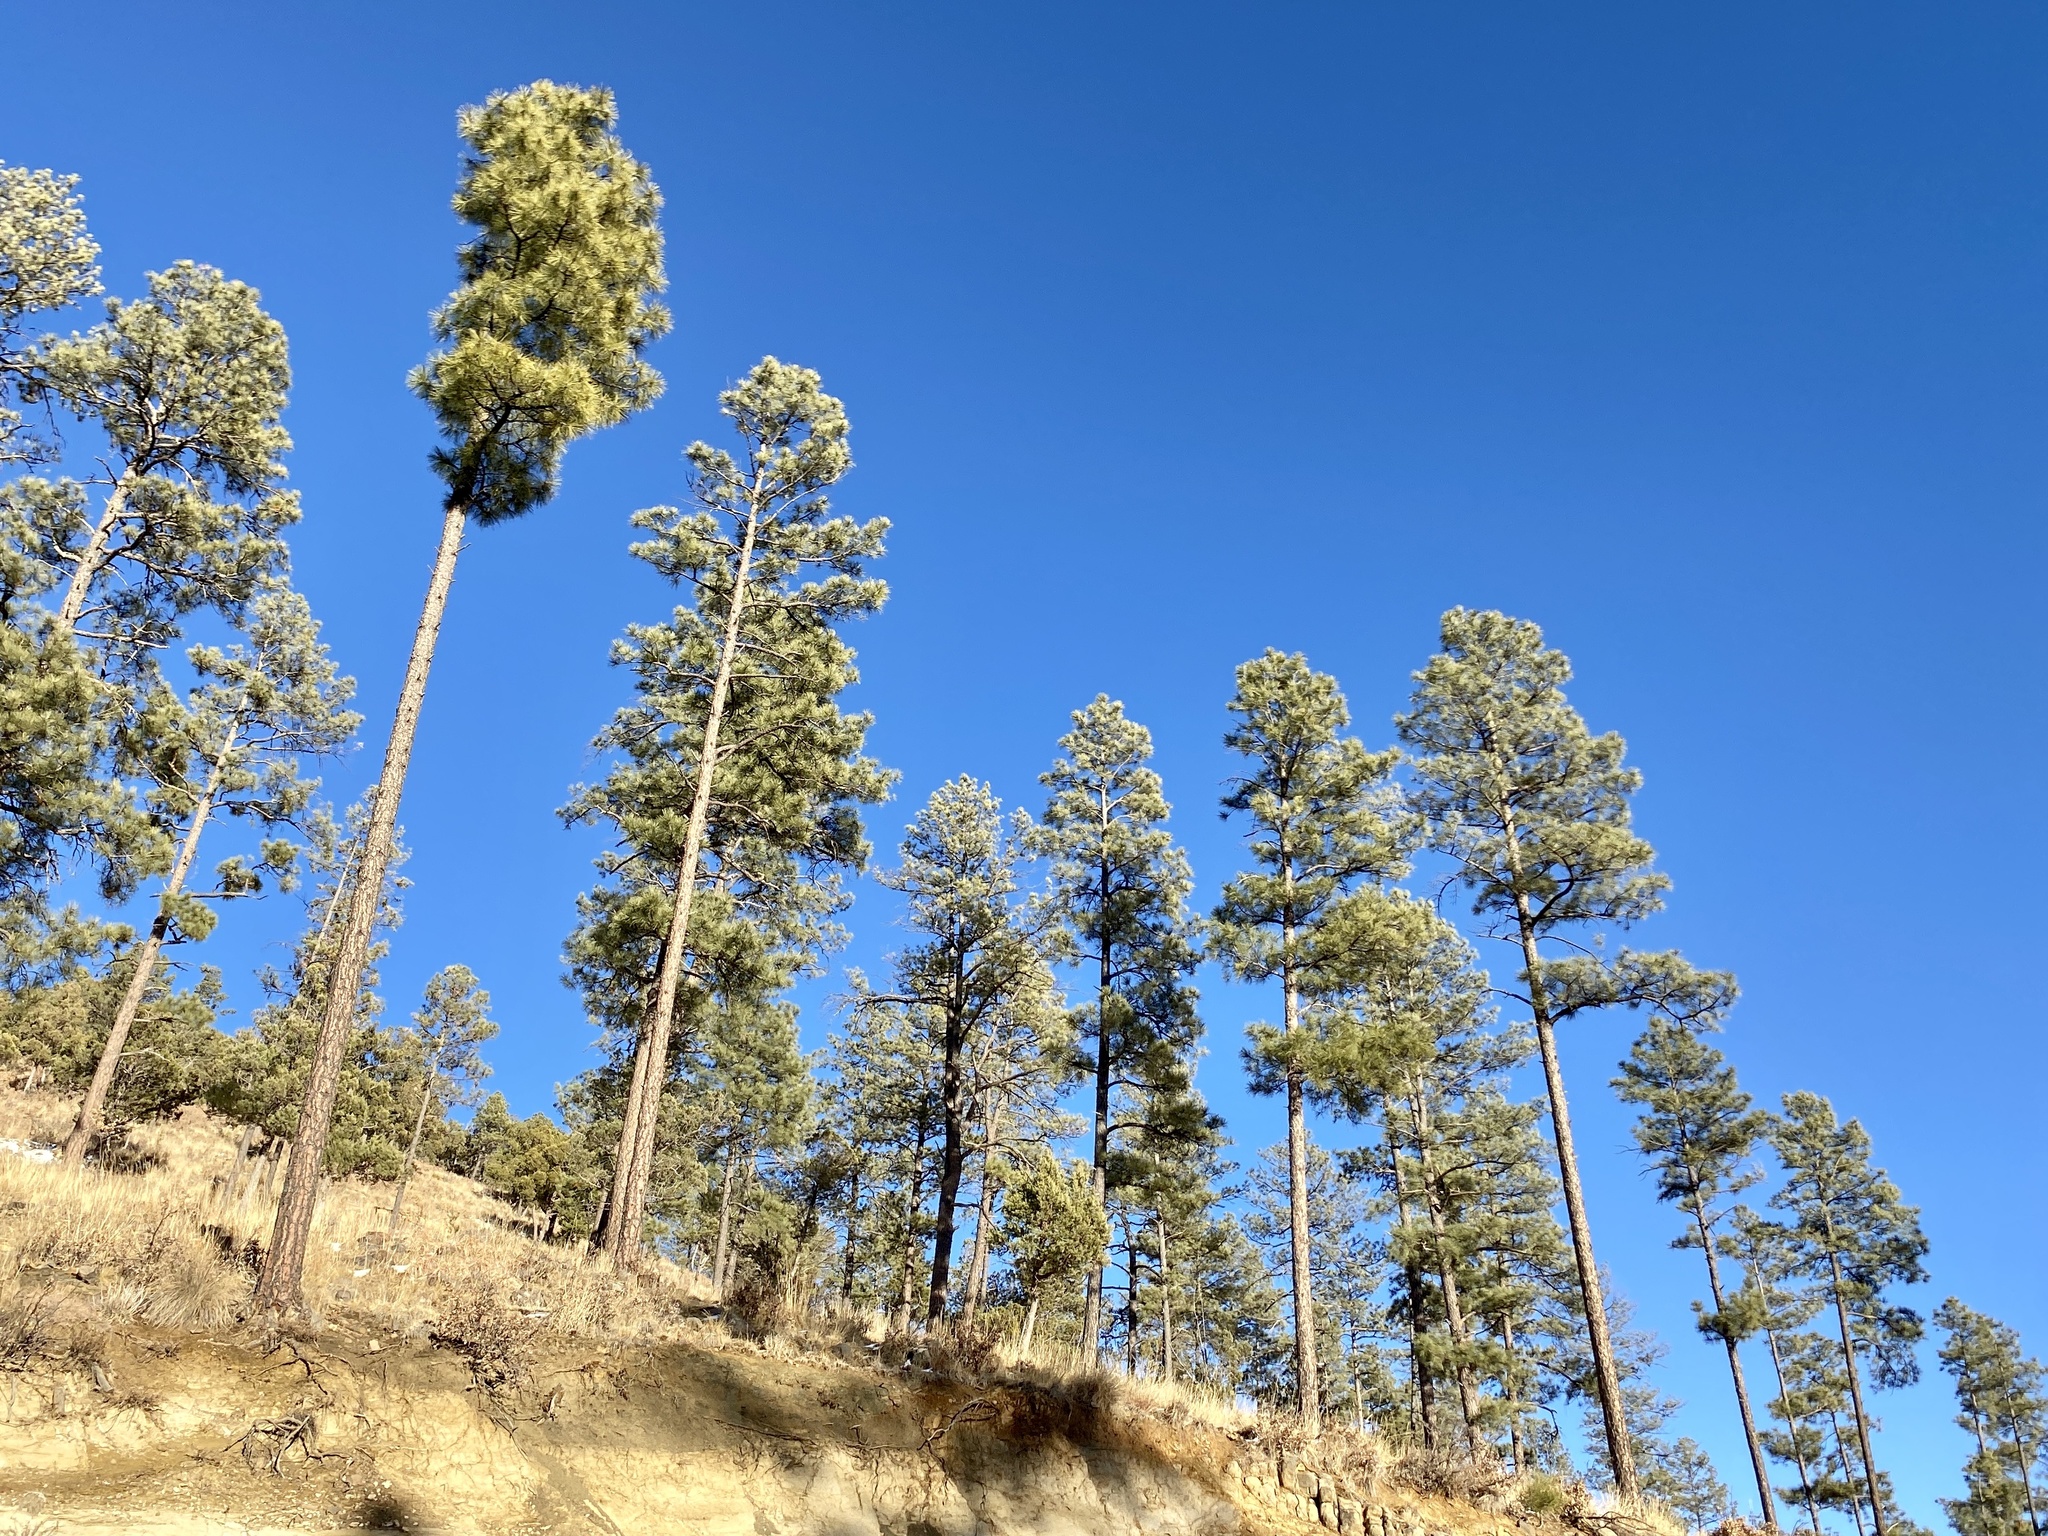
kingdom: Plantae
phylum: Tracheophyta
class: Pinopsida
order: Pinales
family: Pinaceae
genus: Pinus
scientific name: Pinus ponderosa
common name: Western yellow-pine
